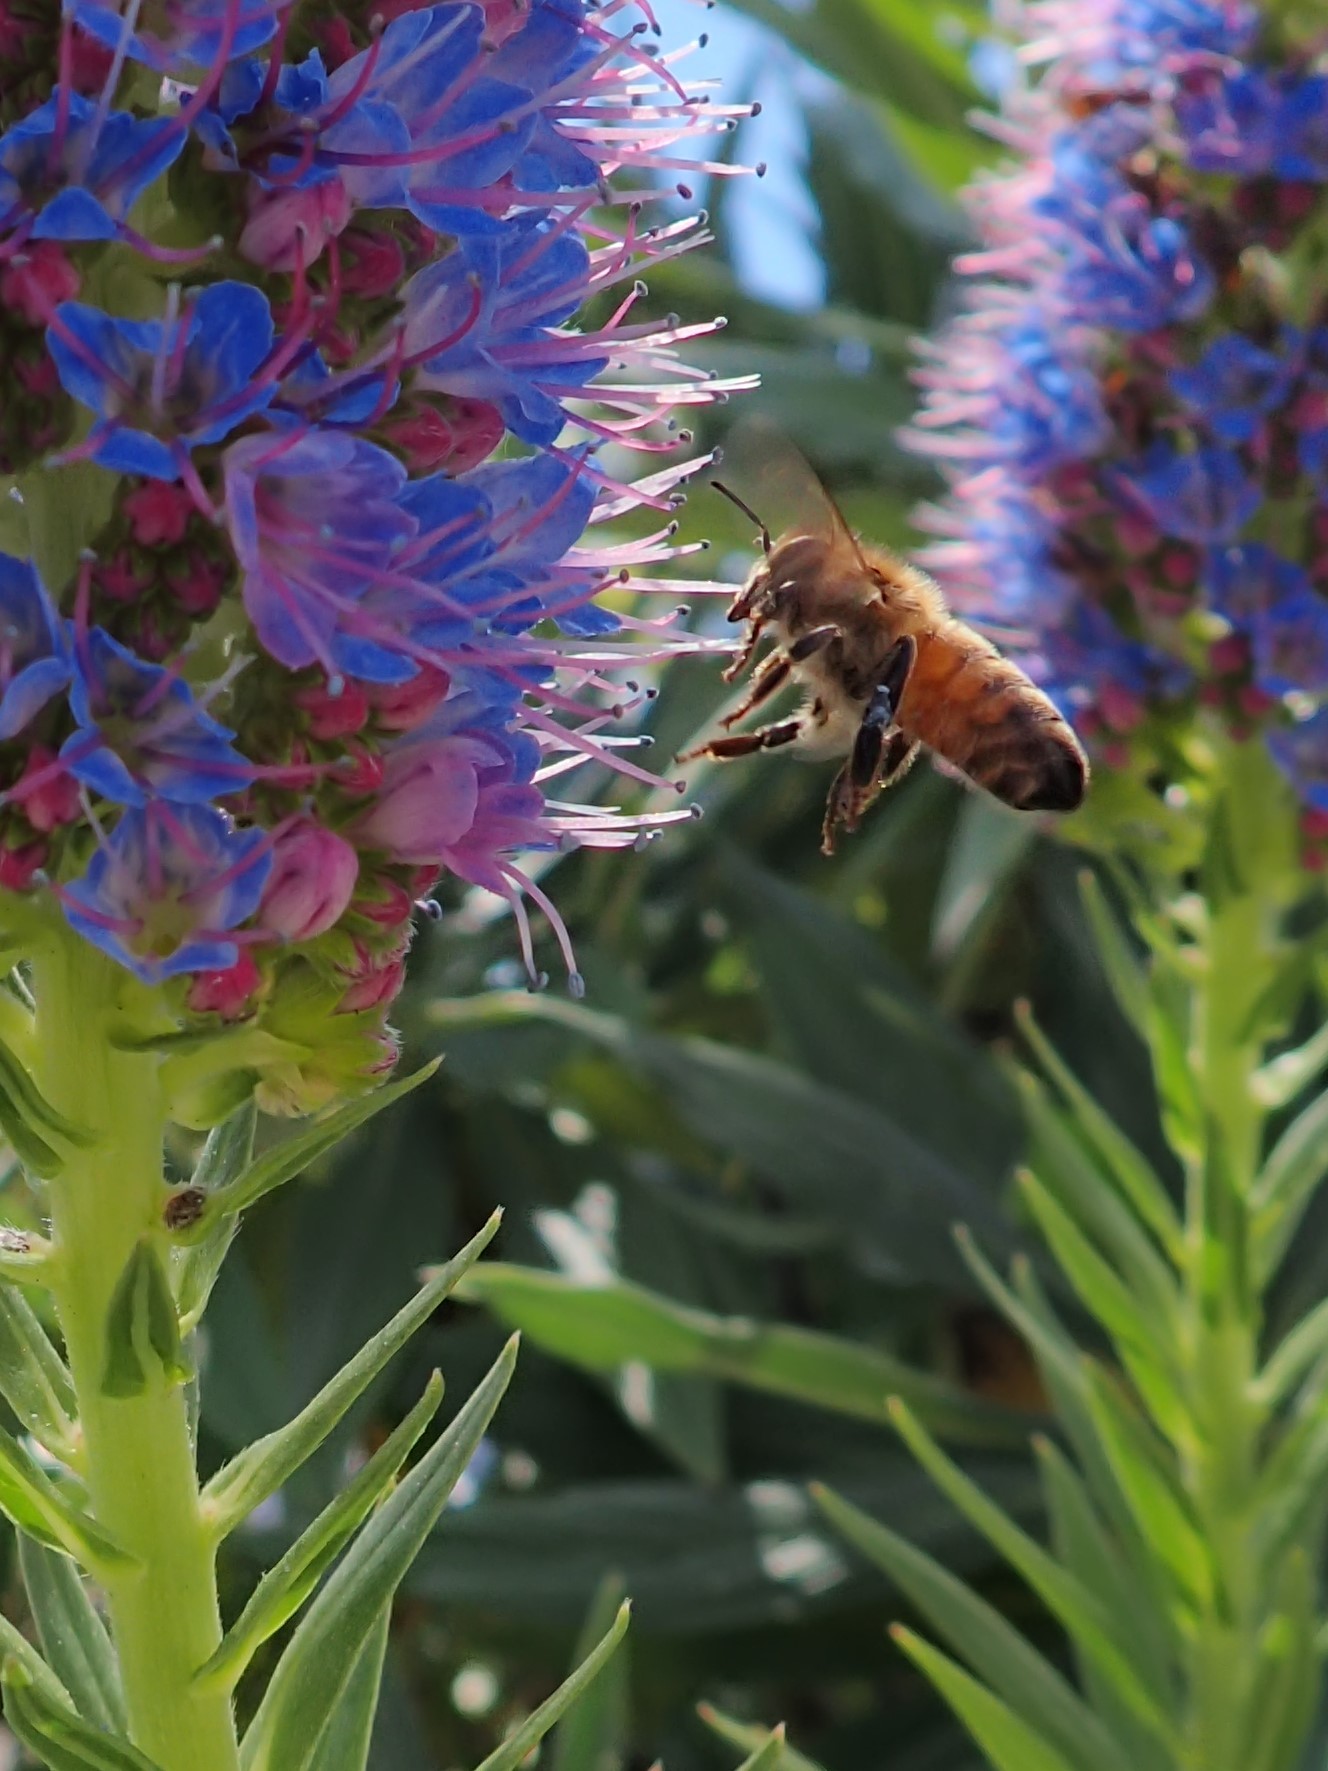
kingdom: Animalia
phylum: Arthropoda
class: Insecta
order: Hymenoptera
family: Apidae
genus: Apis
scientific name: Apis mellifera
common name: Honey bee
